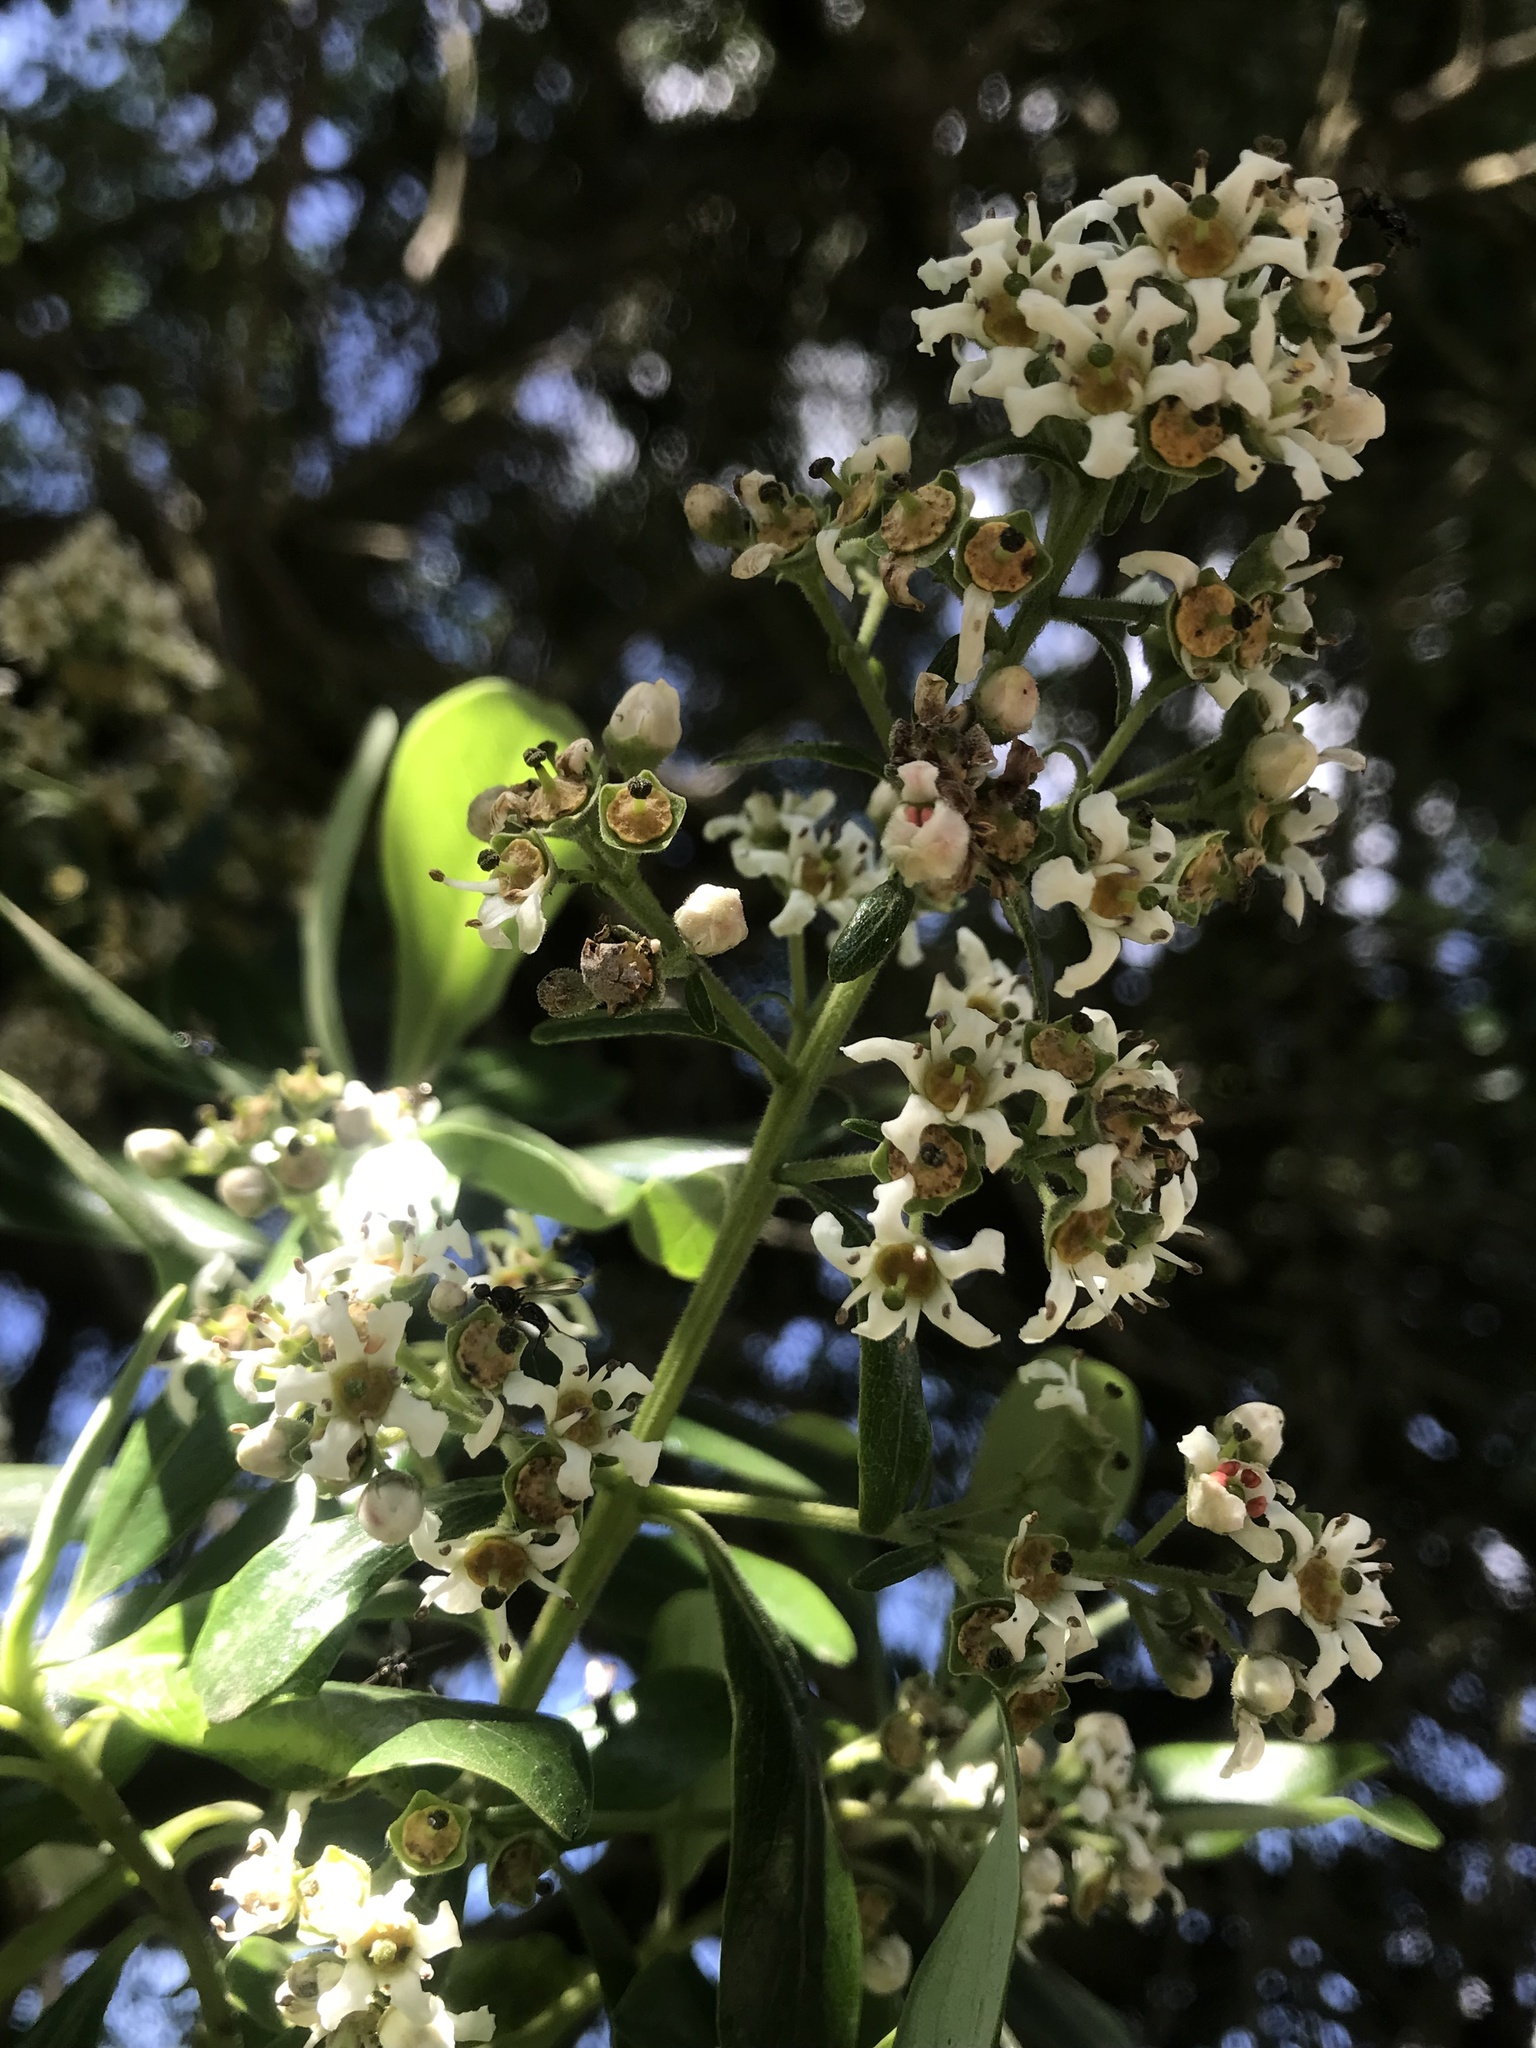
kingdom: Plantae
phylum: Tracheophyta
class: Magnoliopsida
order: Escalloniales
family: Escalloniaceae
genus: Escallonia
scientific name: Escallonia discolor
